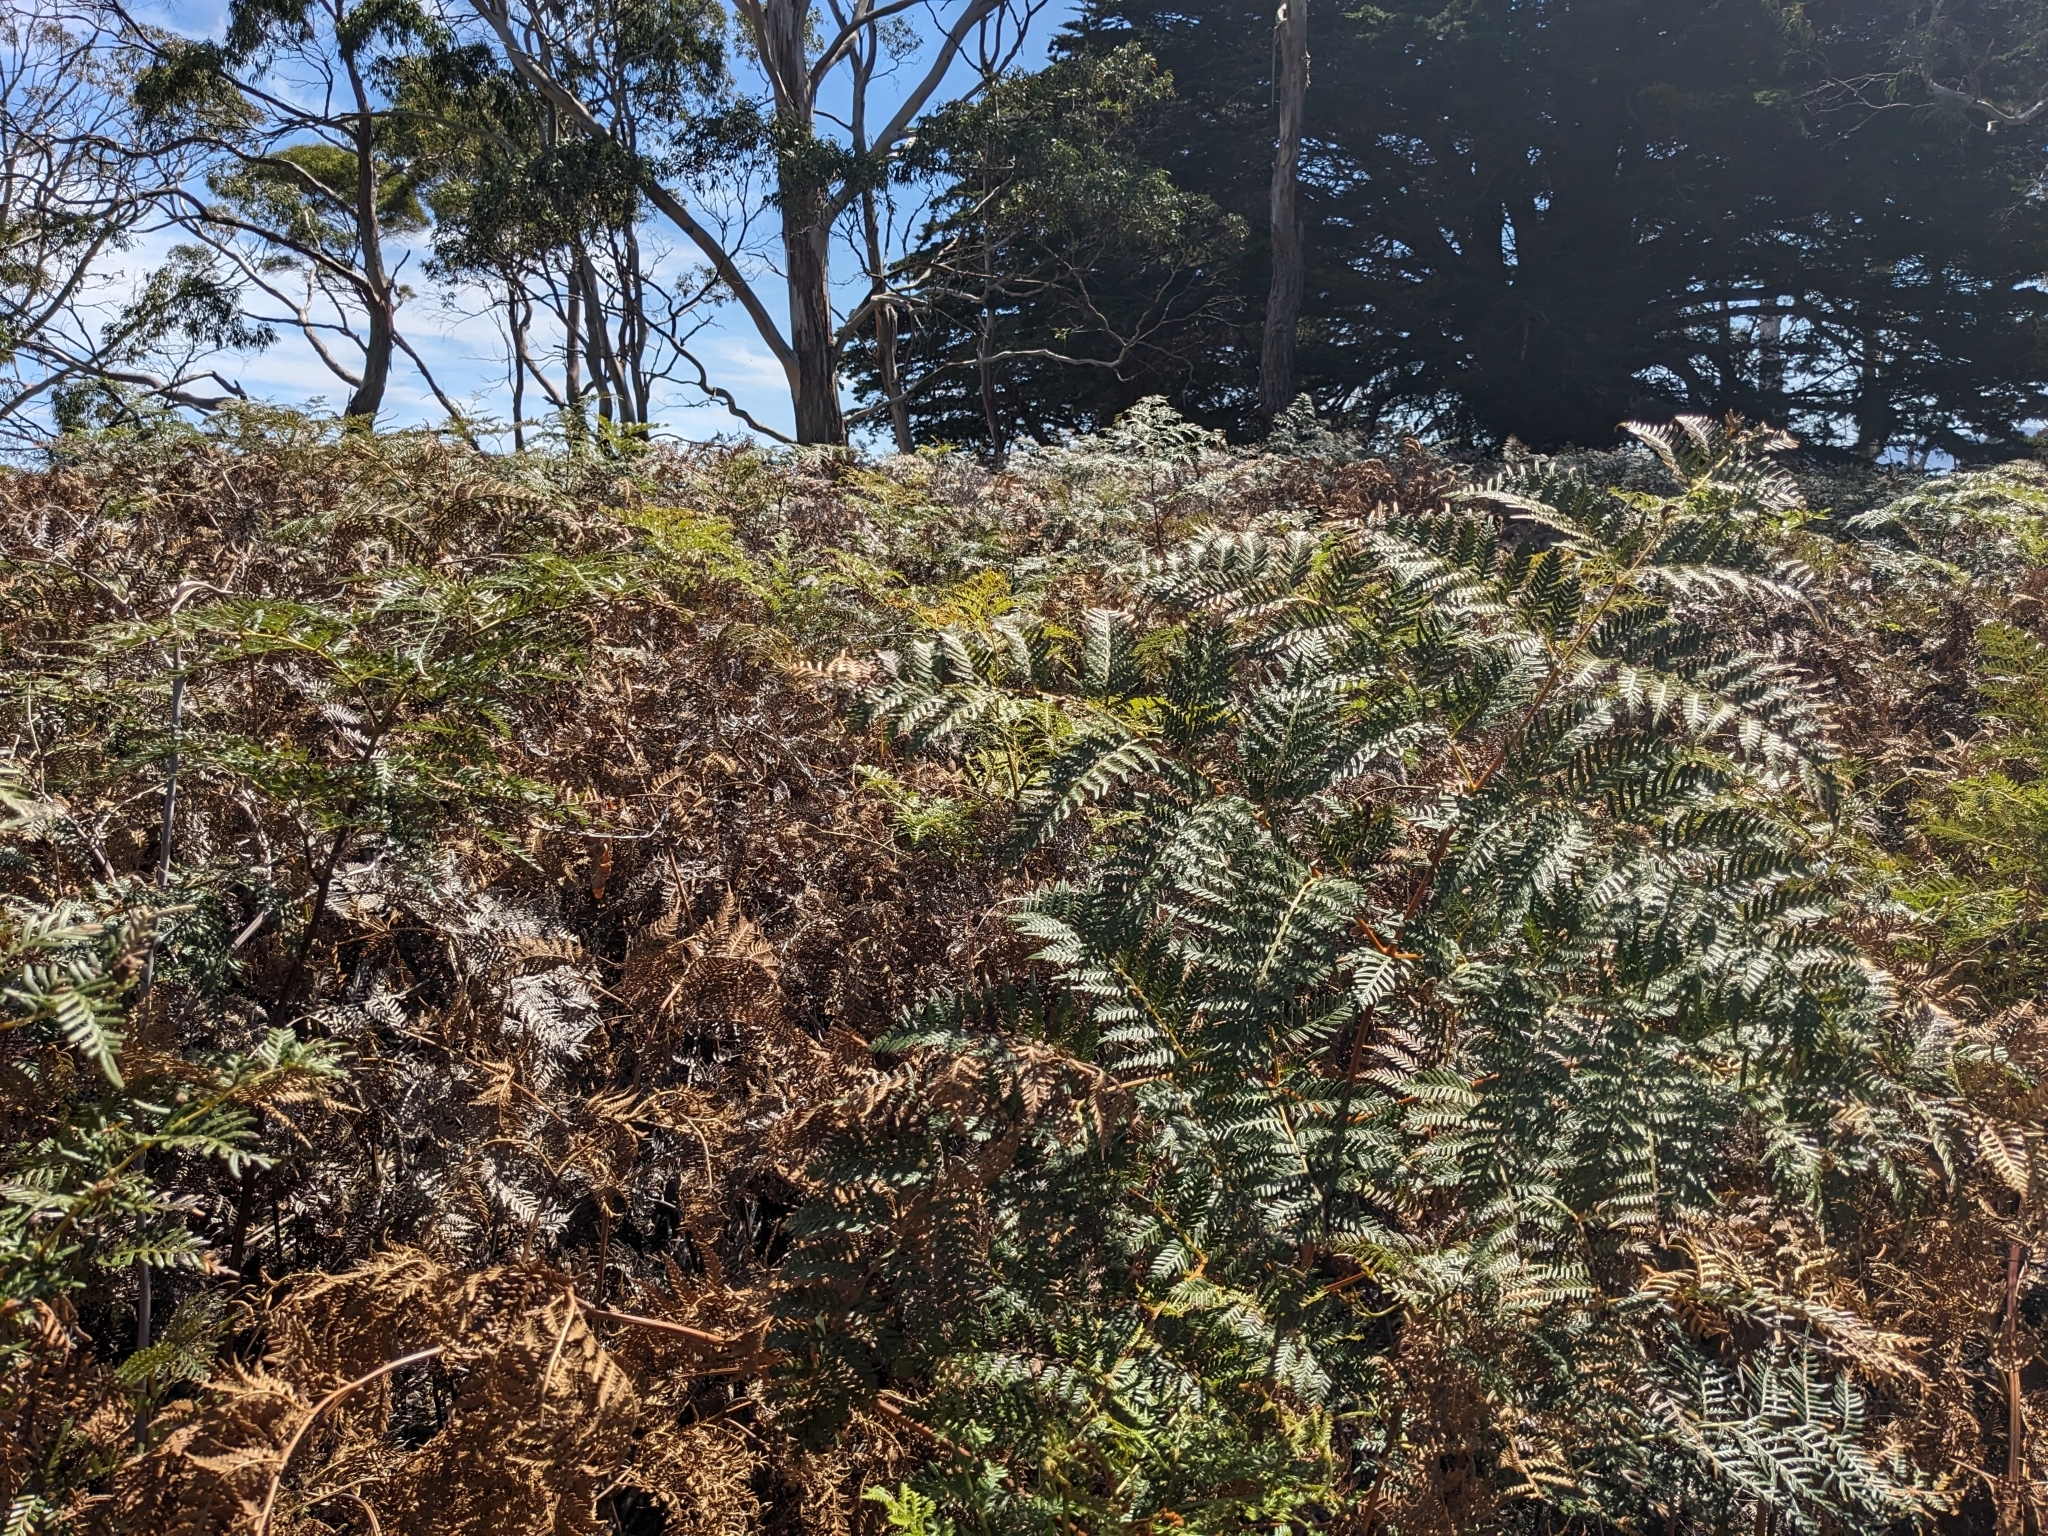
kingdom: Plantae
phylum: Tracheophyta
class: Polypodiopsida
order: Polypodiales
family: Dennstaedtiaceae
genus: Pteridium
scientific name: Pteridium esculentum
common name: Bracken fern
